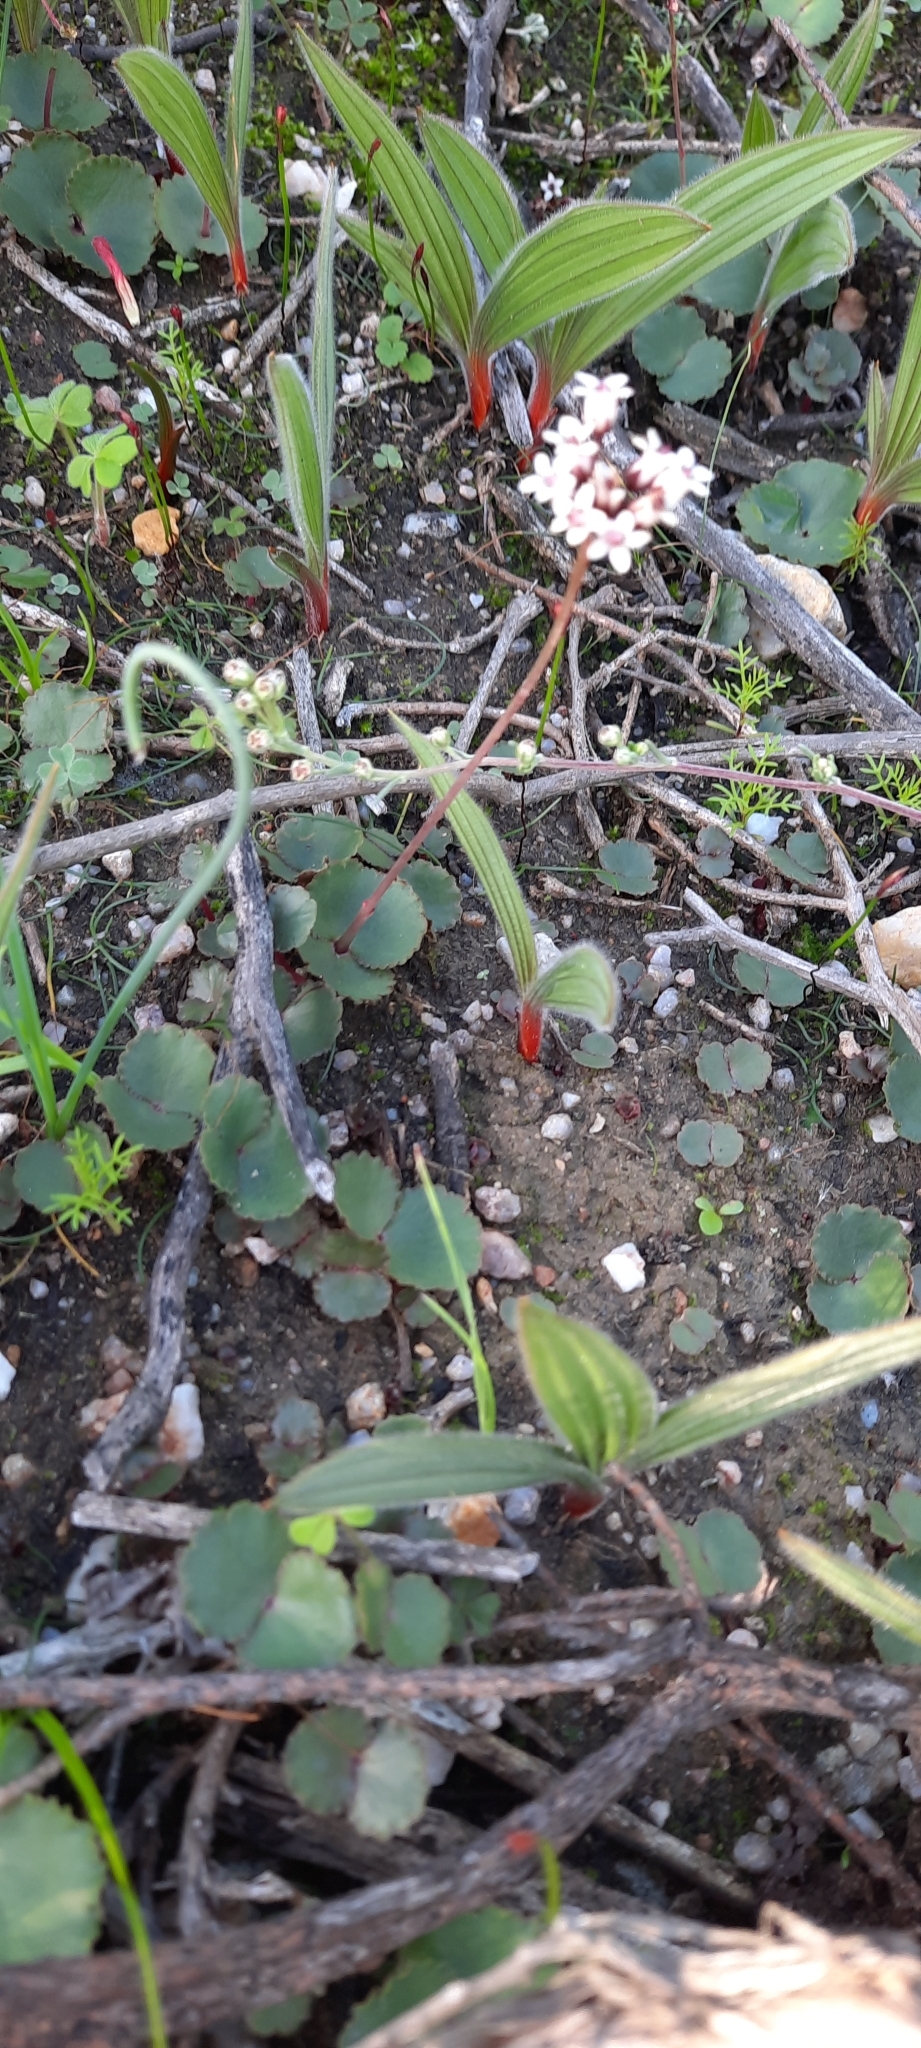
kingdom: Plantae
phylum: Tracheophyta
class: Magnoliopsida
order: Saxifragales
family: Crassulaceae
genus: Crassula
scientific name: Crassula saxifraga
